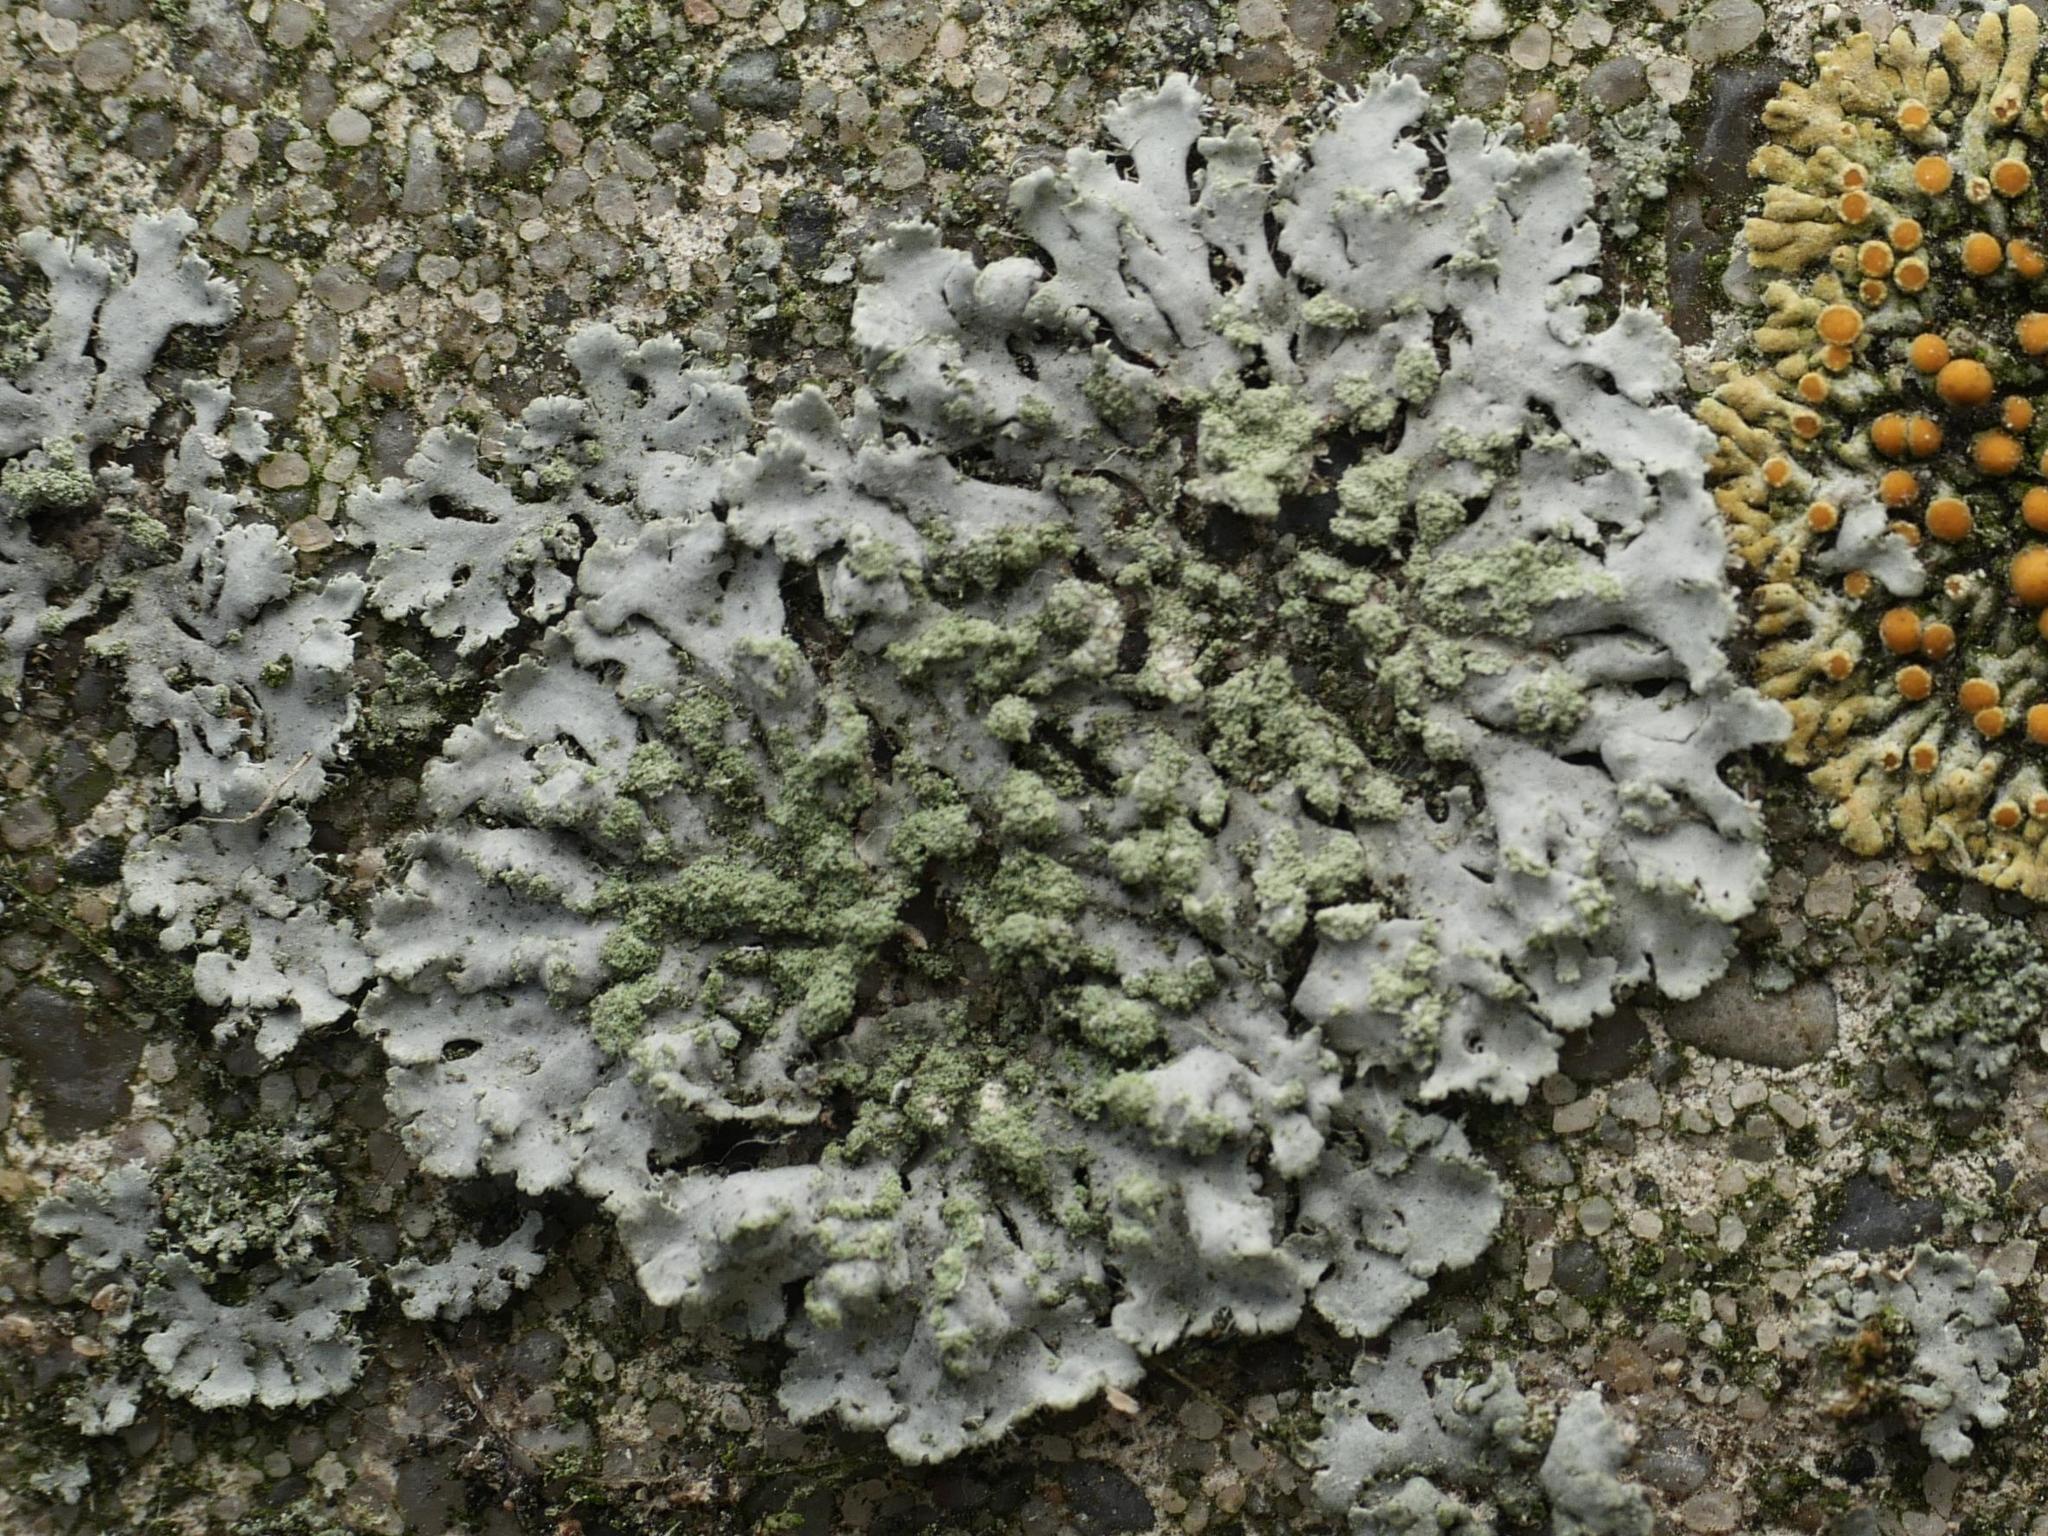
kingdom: Fungi
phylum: Ascomycota
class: Lecanoromycetes
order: Caliciales
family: Physciaceae
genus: Phaeophyscia
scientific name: Phaeophyscia orbicularis
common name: Mealy shadow lichen
